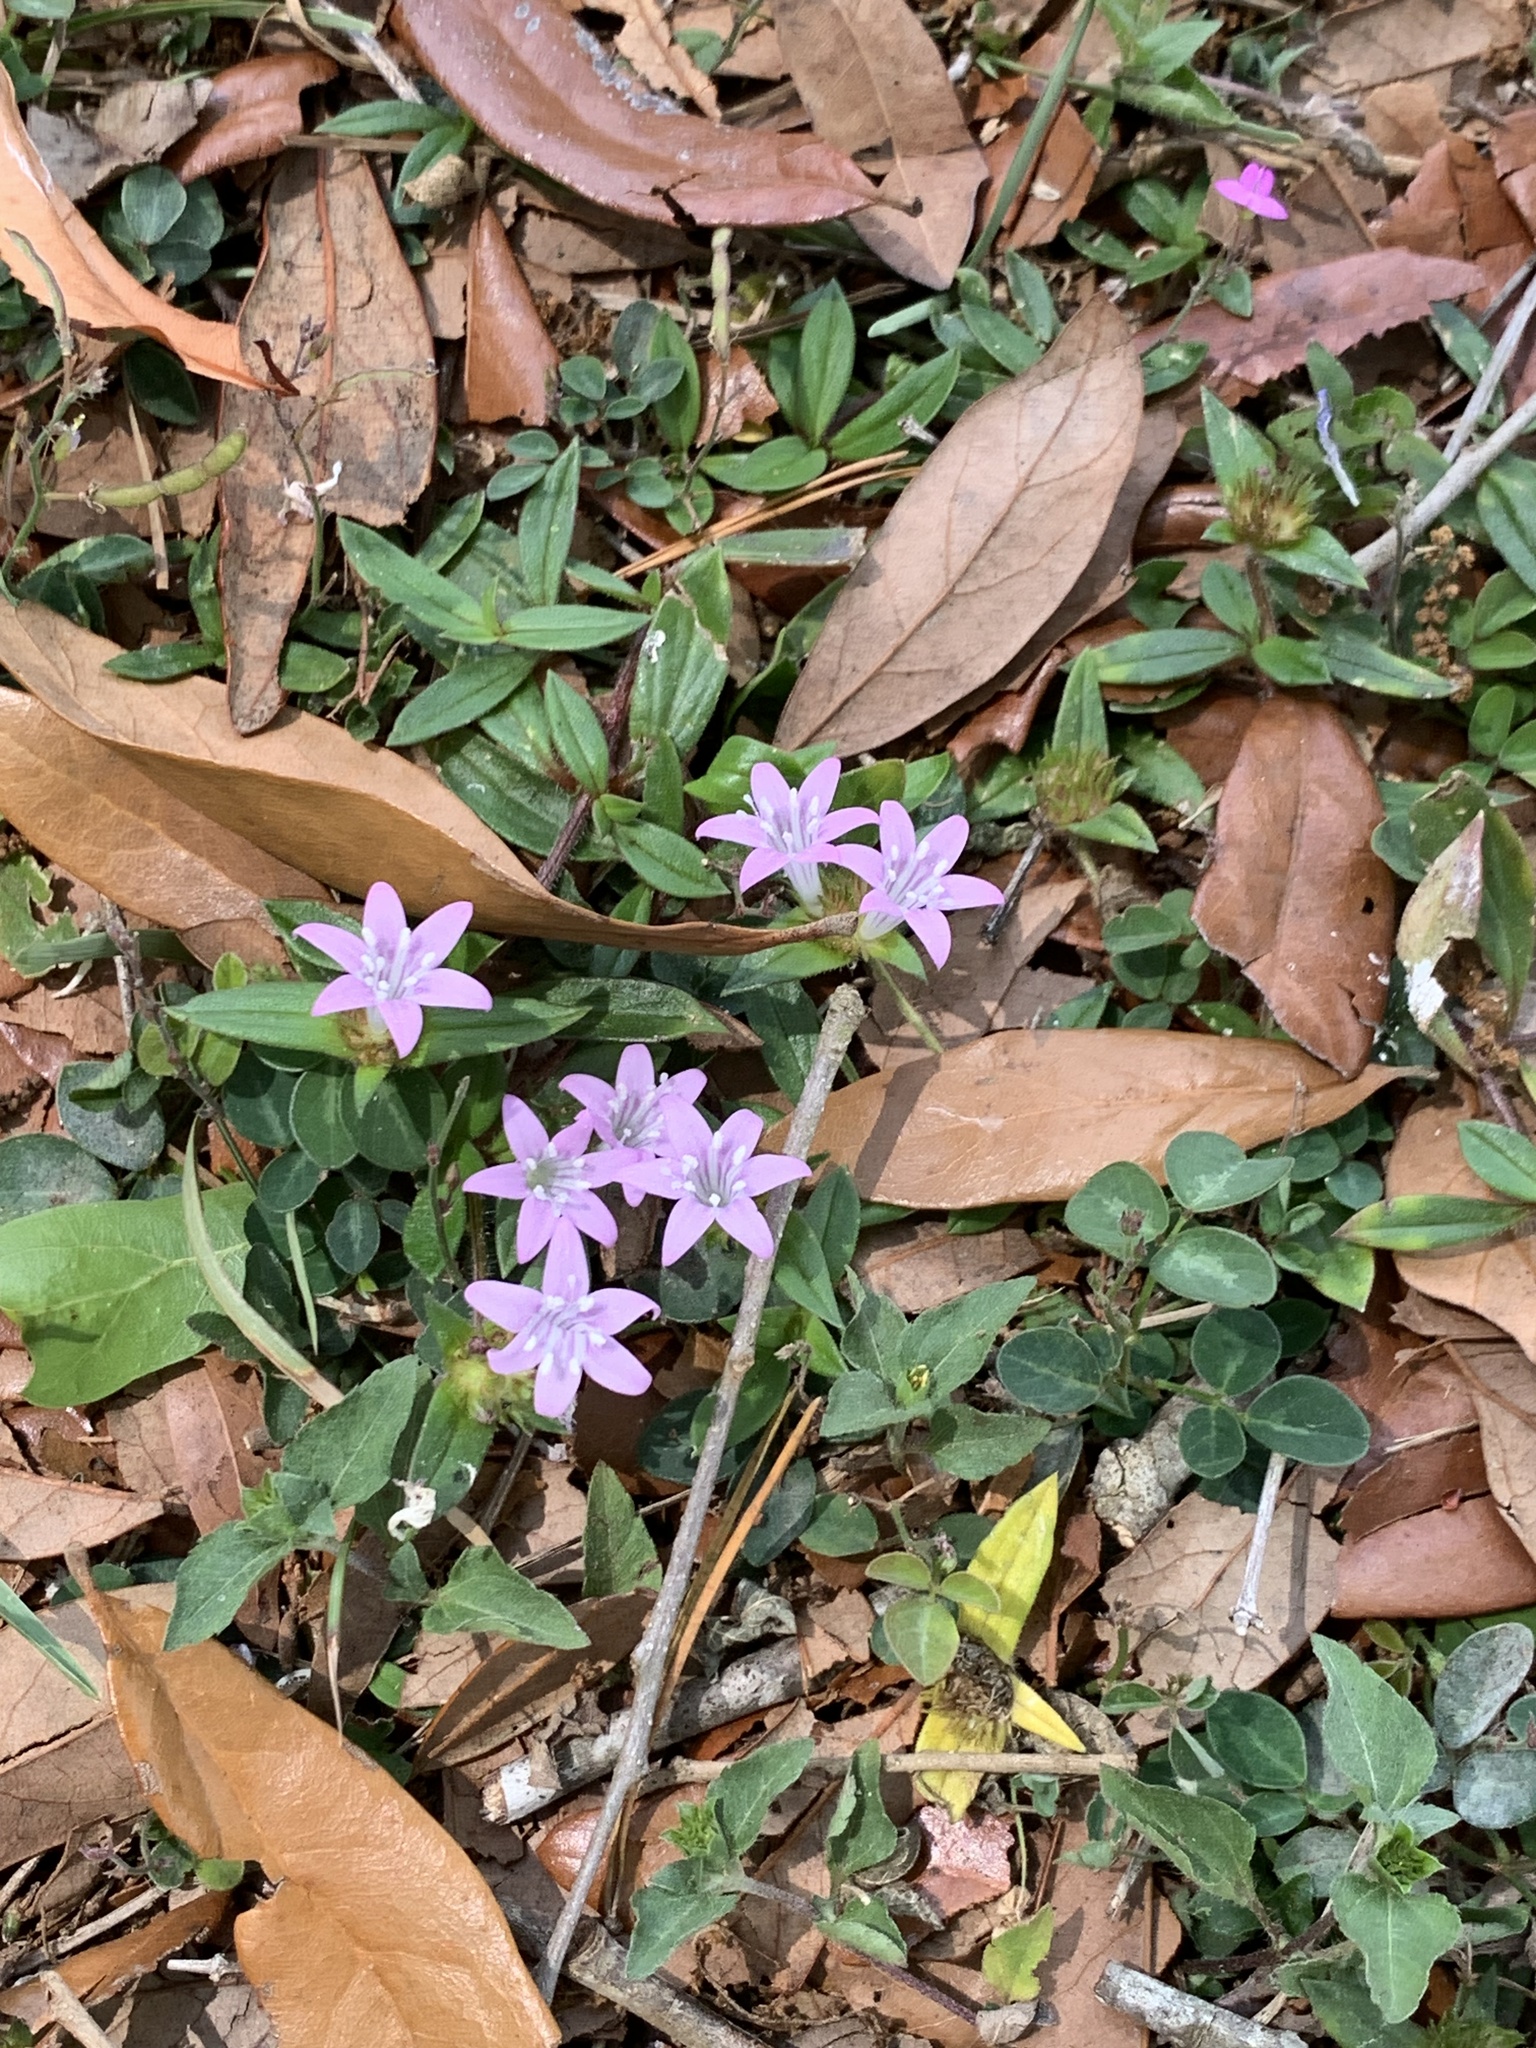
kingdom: Plantae
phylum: Tracheophyta
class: Magnoliopsida
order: Gentianales
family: Rubiaceae
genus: Richardia
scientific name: Richardia grandiflora
